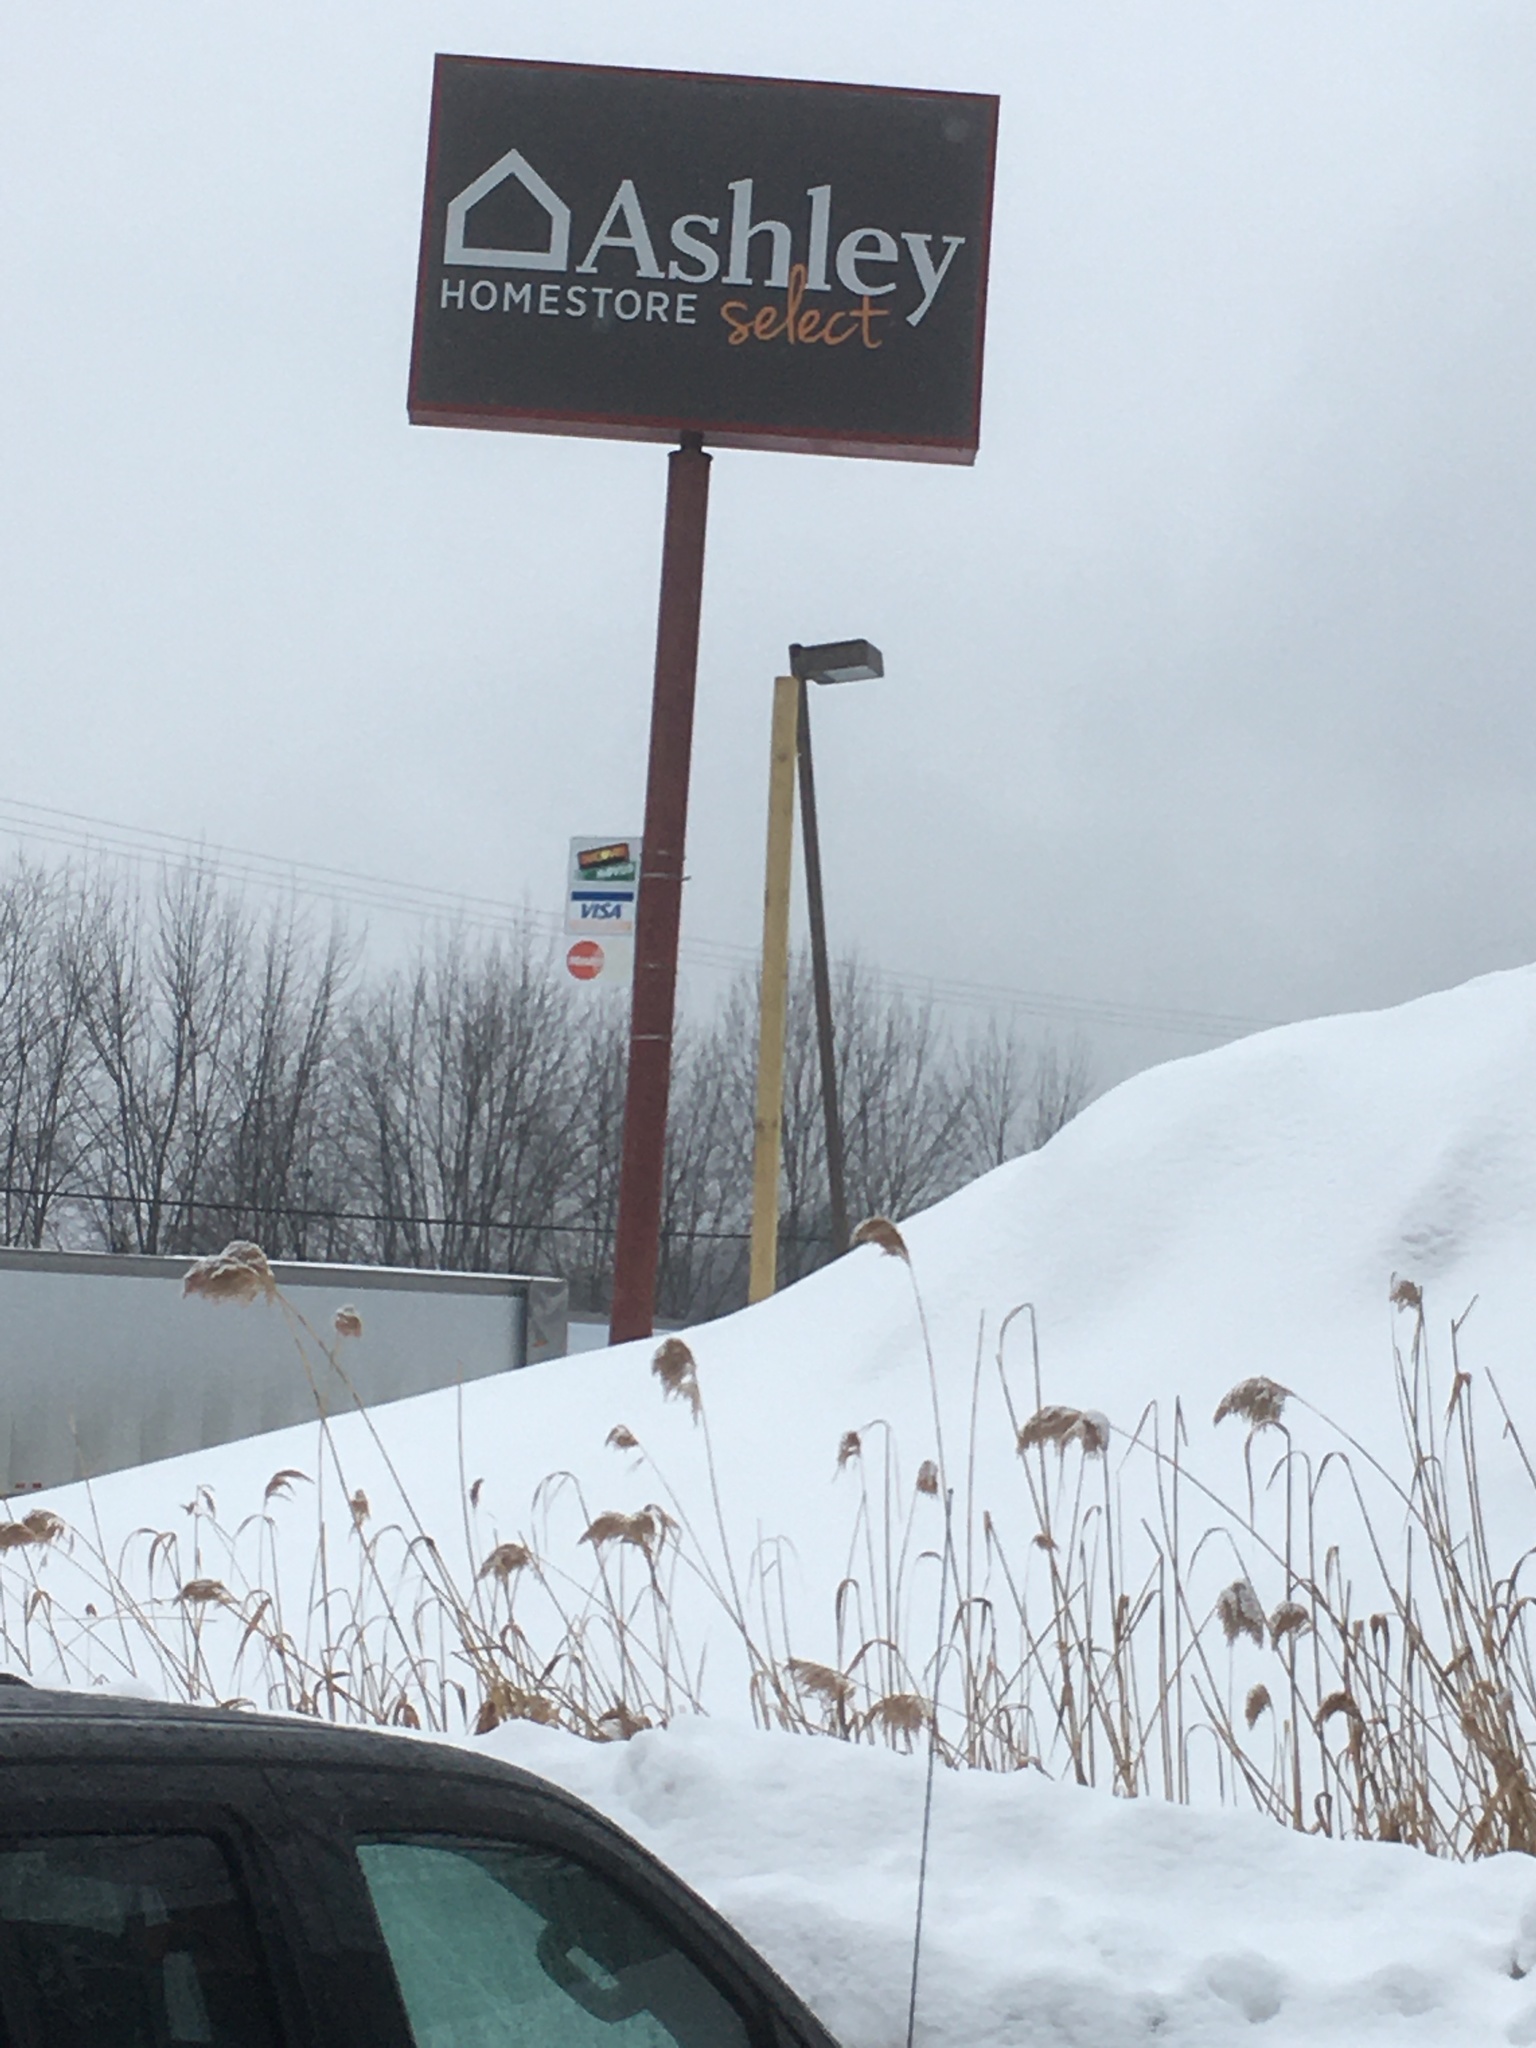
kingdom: Plantae
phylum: Tracheophyta
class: Liliopsida
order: Poales
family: Poaceae
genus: Phragmites
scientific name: Phragmites australis
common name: Common reed
